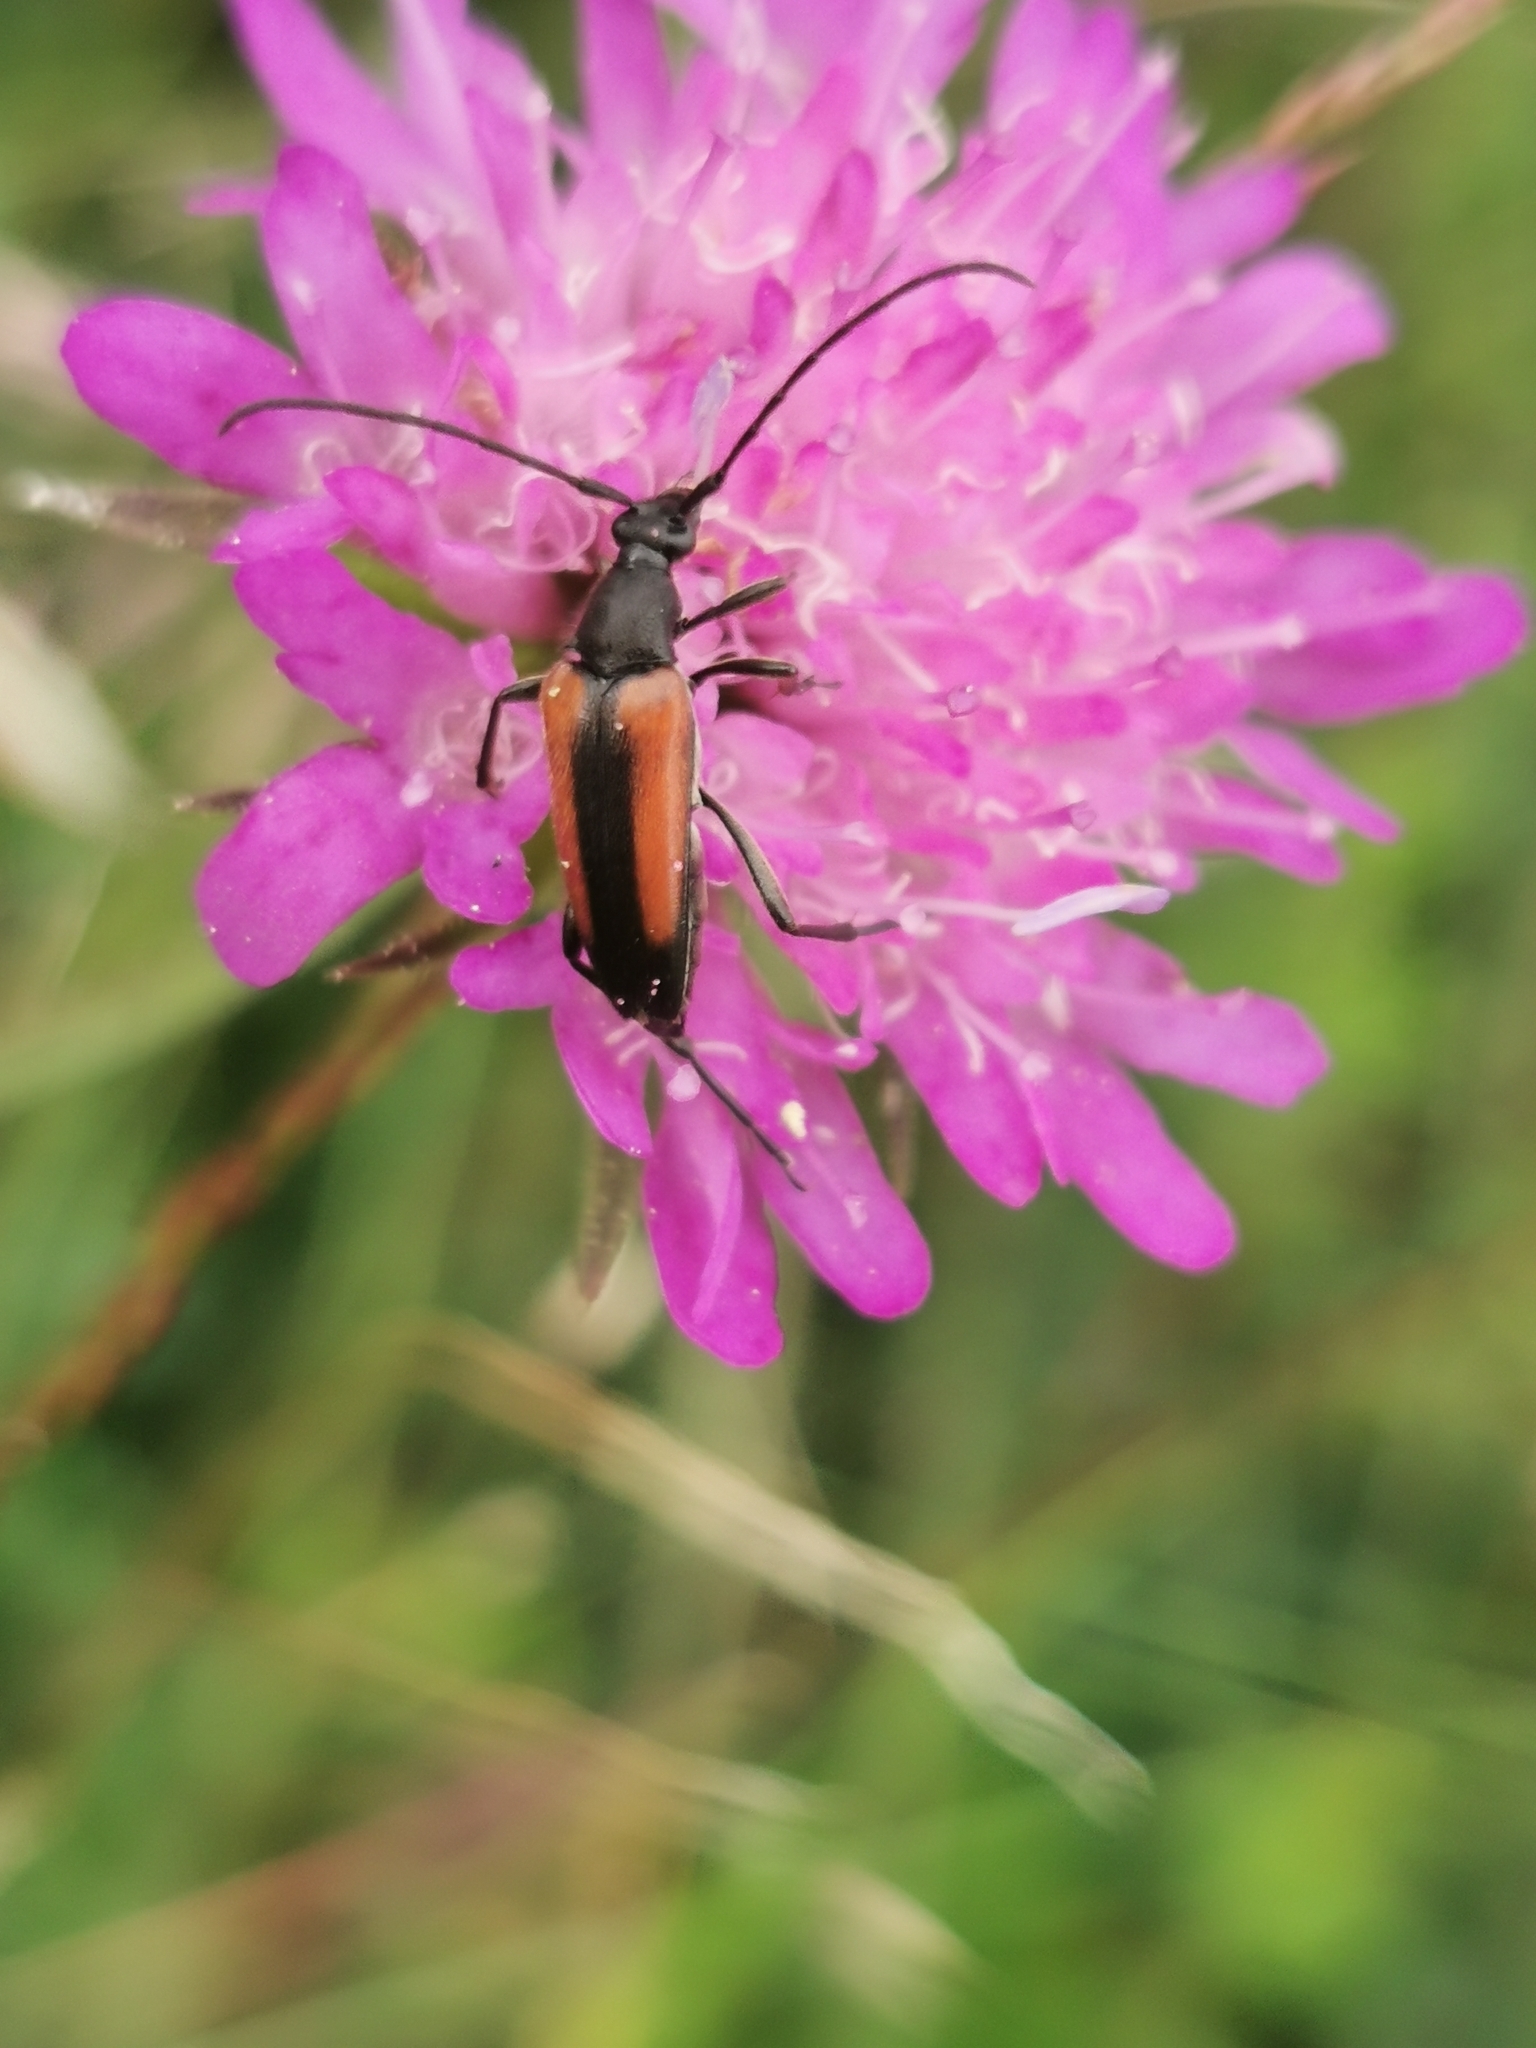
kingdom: Animalia
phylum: Arthropoda
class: Insecta
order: Coleoptera
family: Cerambycidae
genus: Stenurella
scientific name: Stenurella melanura
